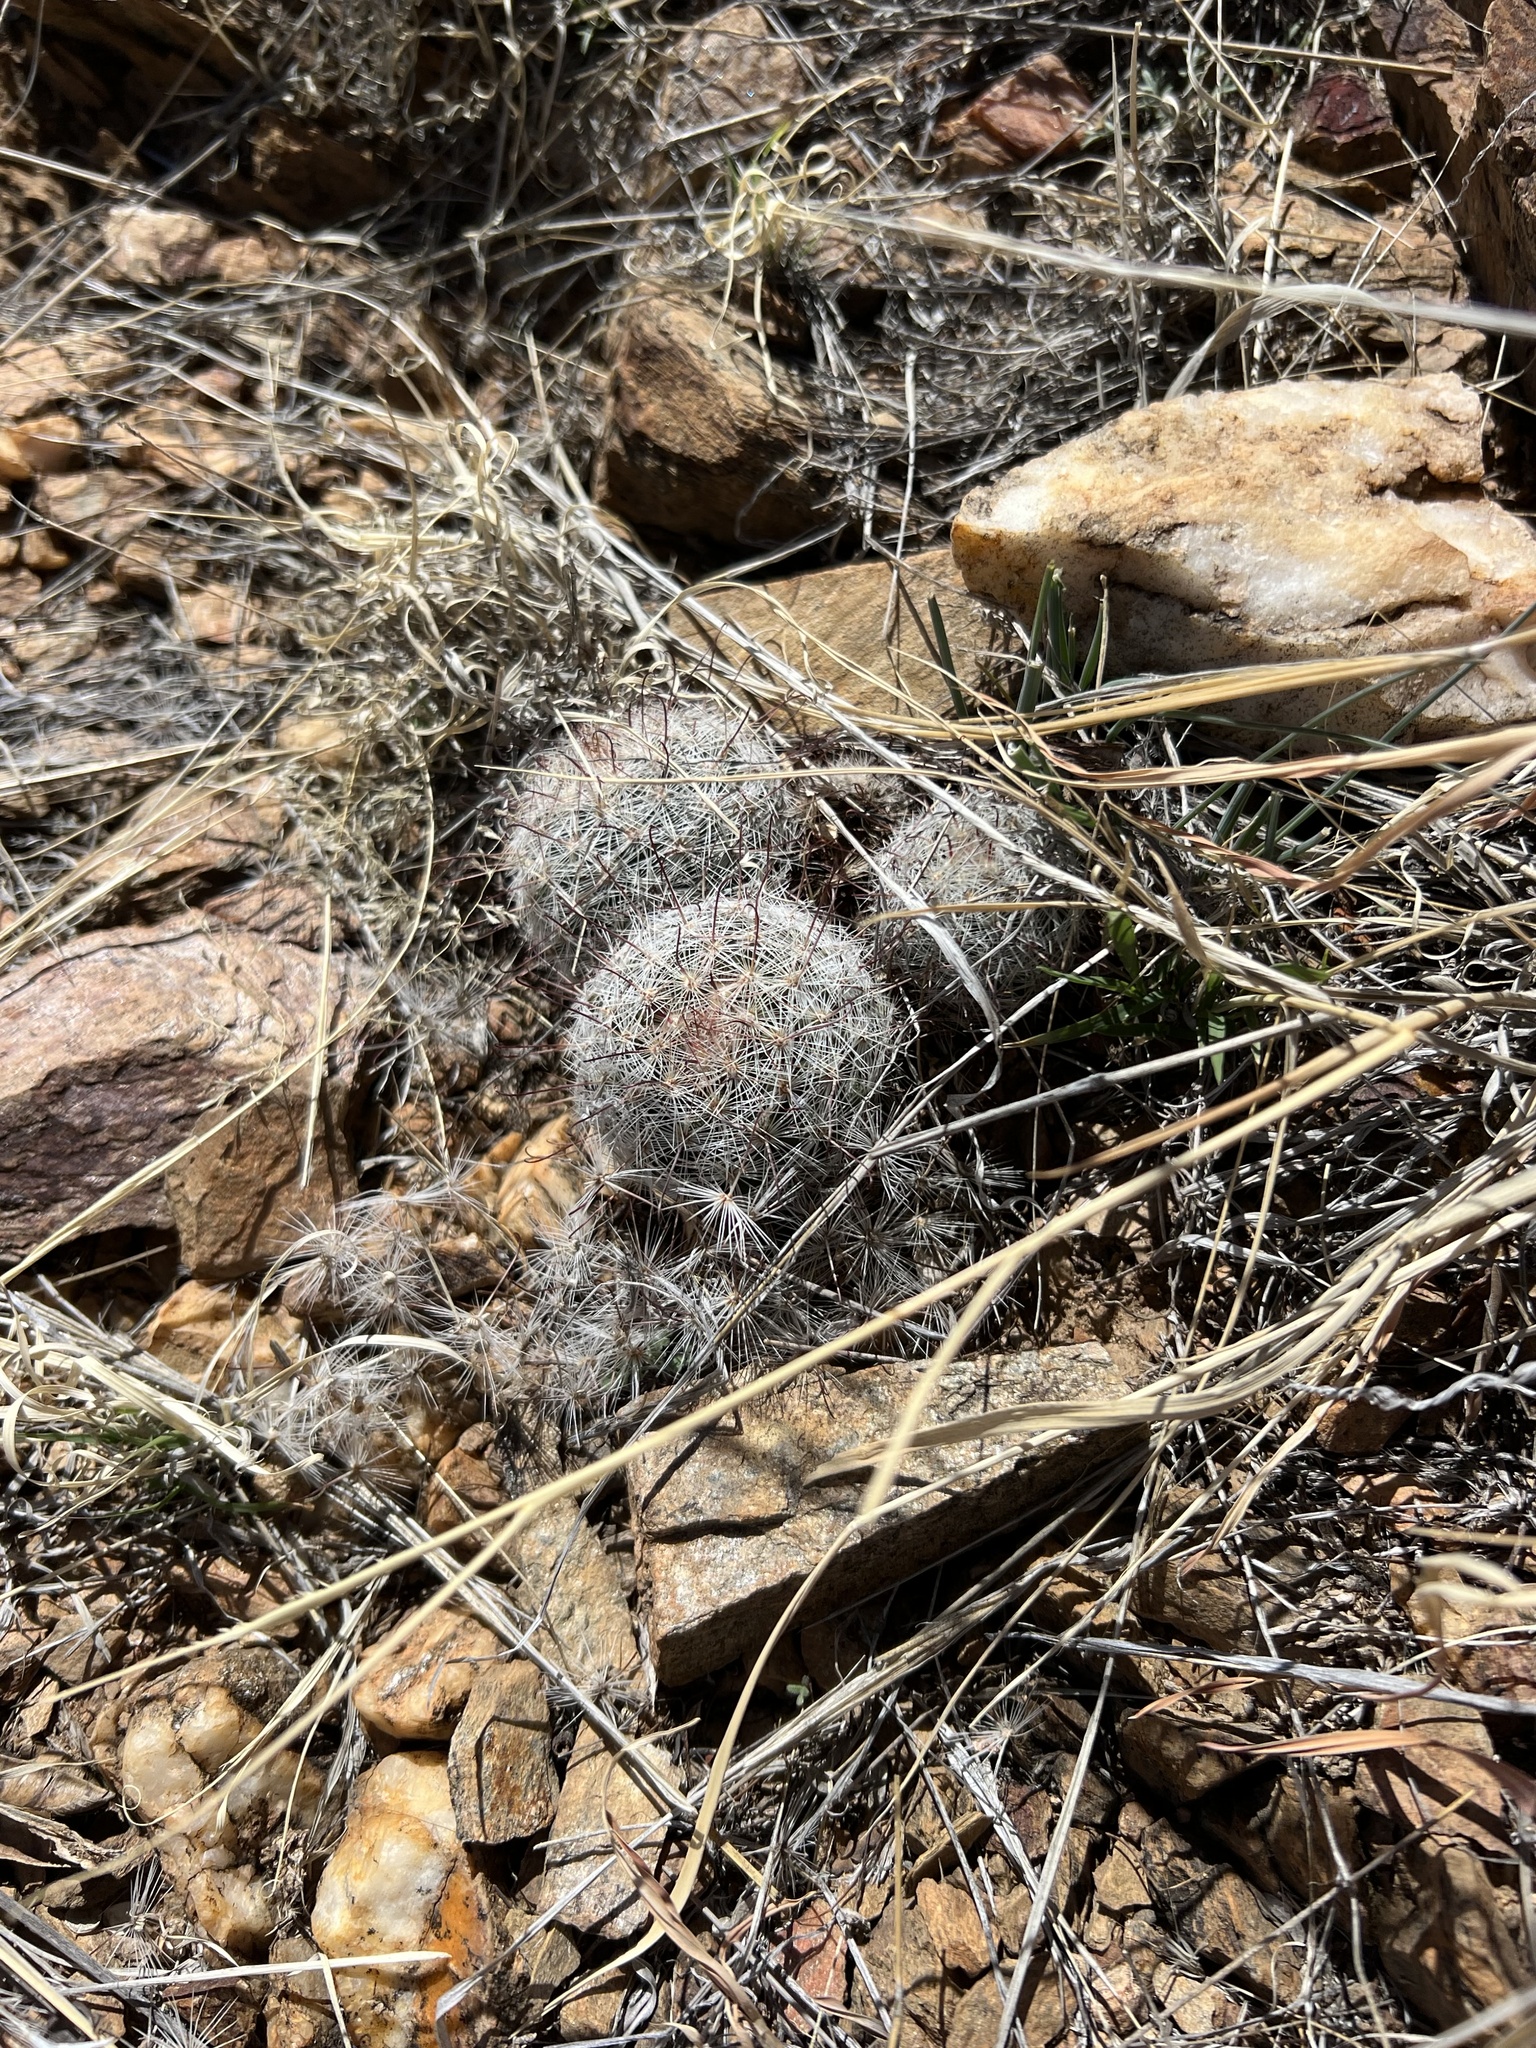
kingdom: Plantae
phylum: Tracheophyta
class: Magnoliopsida
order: Caryophyllales
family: Cactaceae
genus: Cochemiea
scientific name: Cochemiea grahamii
